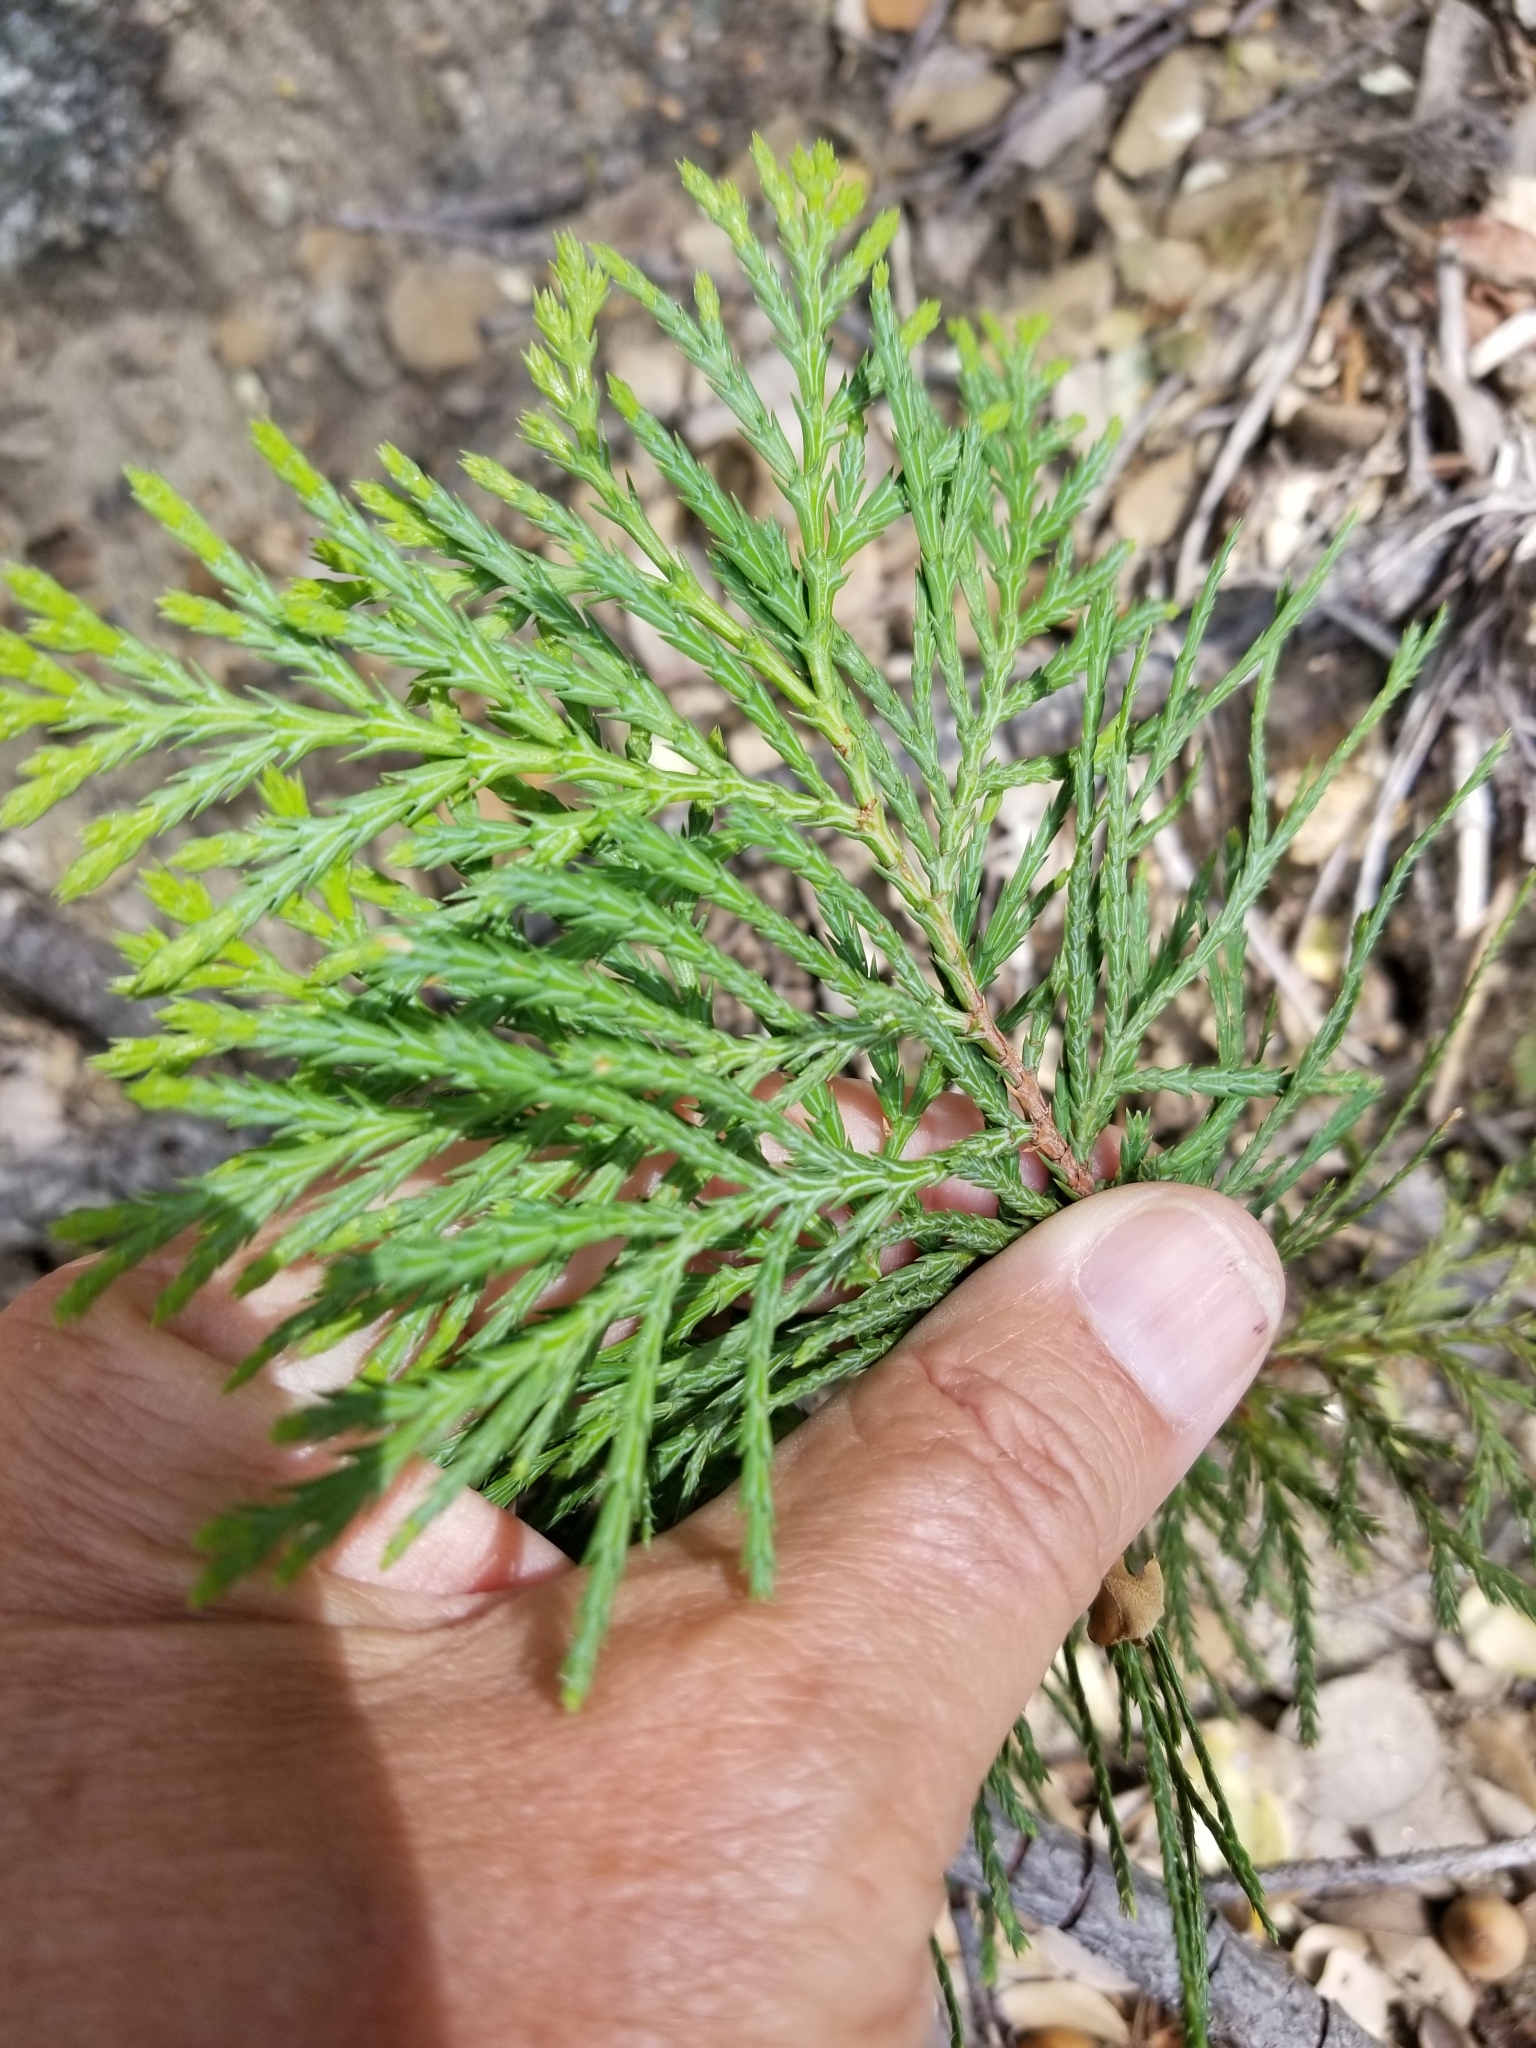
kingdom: Plantae
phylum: Tracheophyta
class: Pinopsida
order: Pinales
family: Cupressaceae
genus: Calocedrus
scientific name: Calocedrus decurrens
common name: Californian incense-cedar
